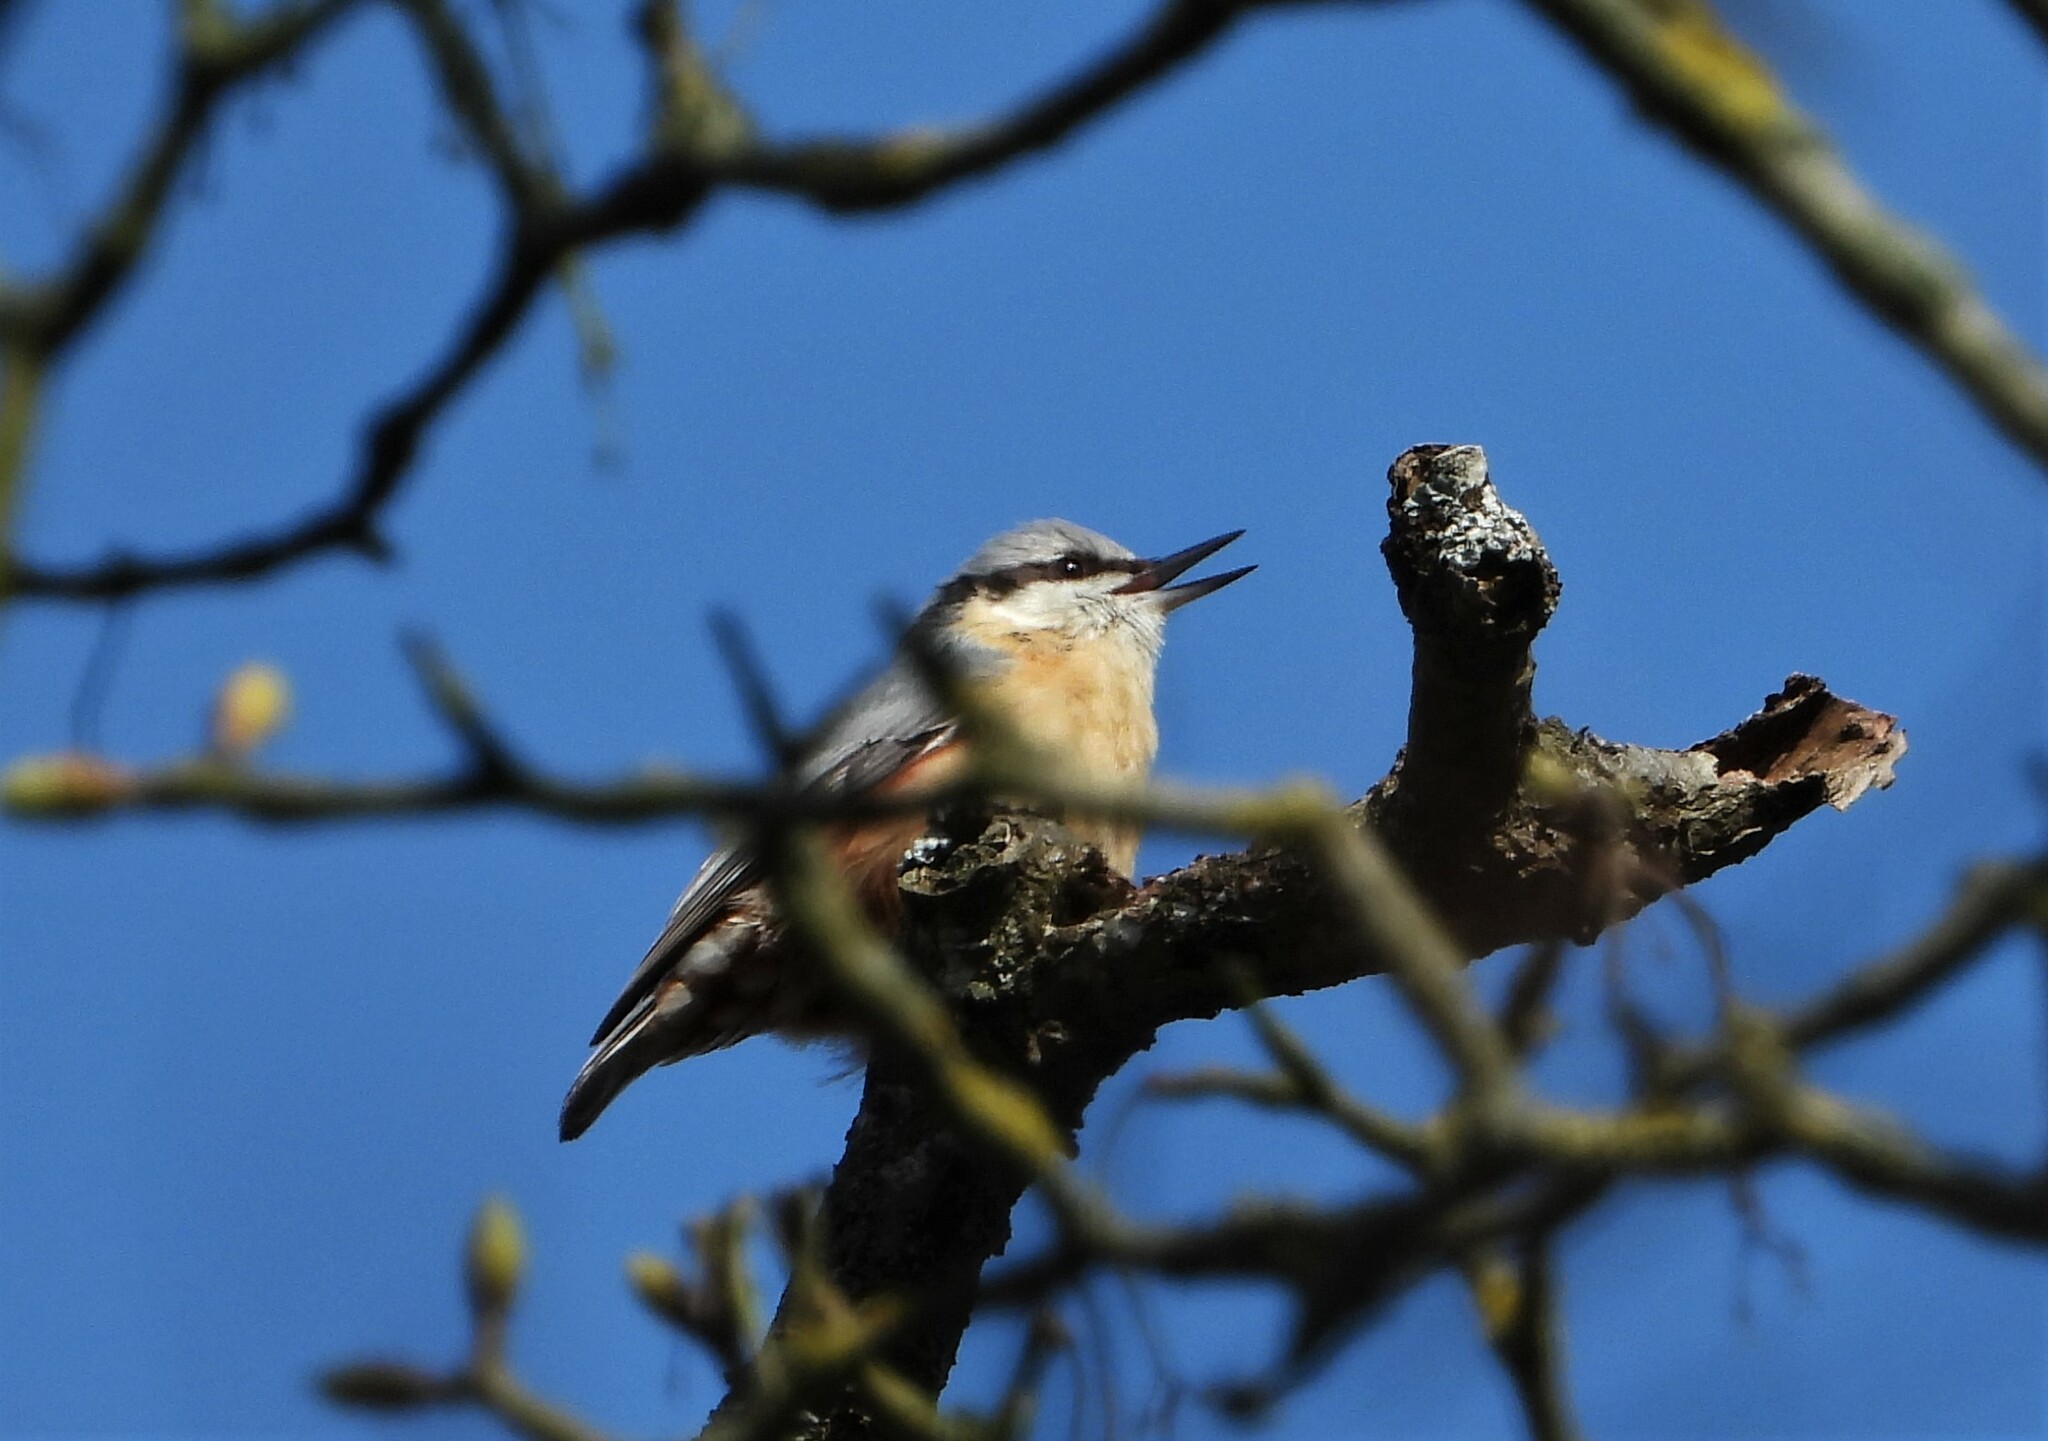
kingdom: Animalia
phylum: Chordata
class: Aves
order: Passeriformes
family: Sittidae
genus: Sitta
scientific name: Sitta europaea
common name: Eurasian nuthatch
